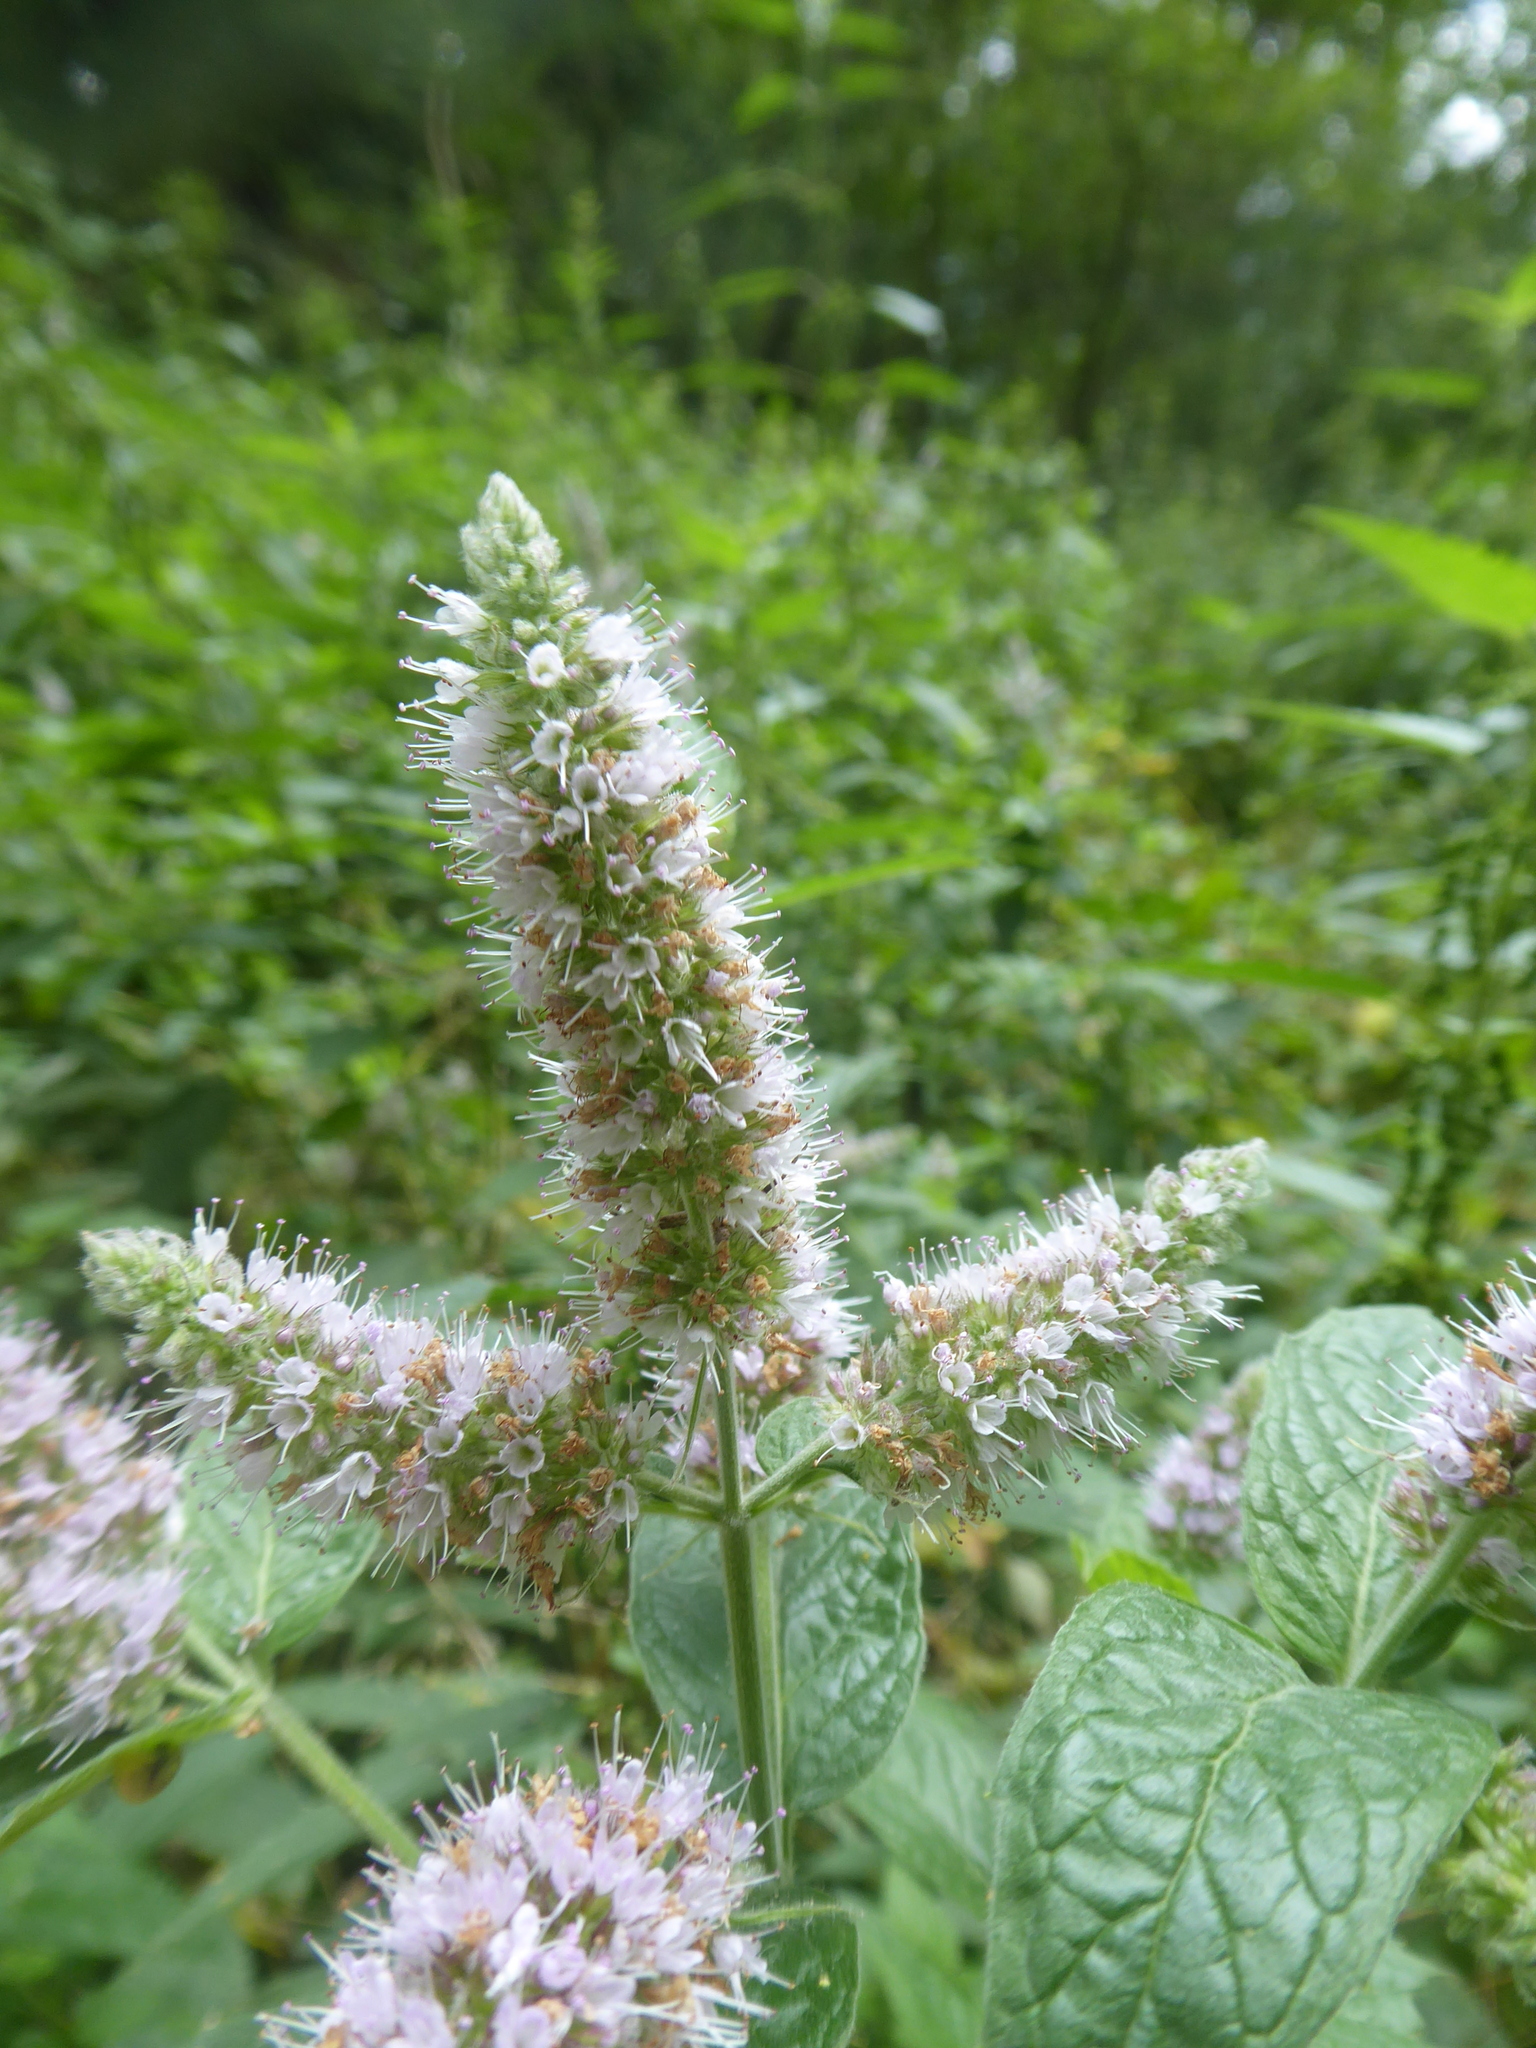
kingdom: Plantae
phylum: Tracheophyta
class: Magnoliopsida
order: Lamiales
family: Lamiaceae
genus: Mentha
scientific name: Mentha longifolia
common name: Horse mint
